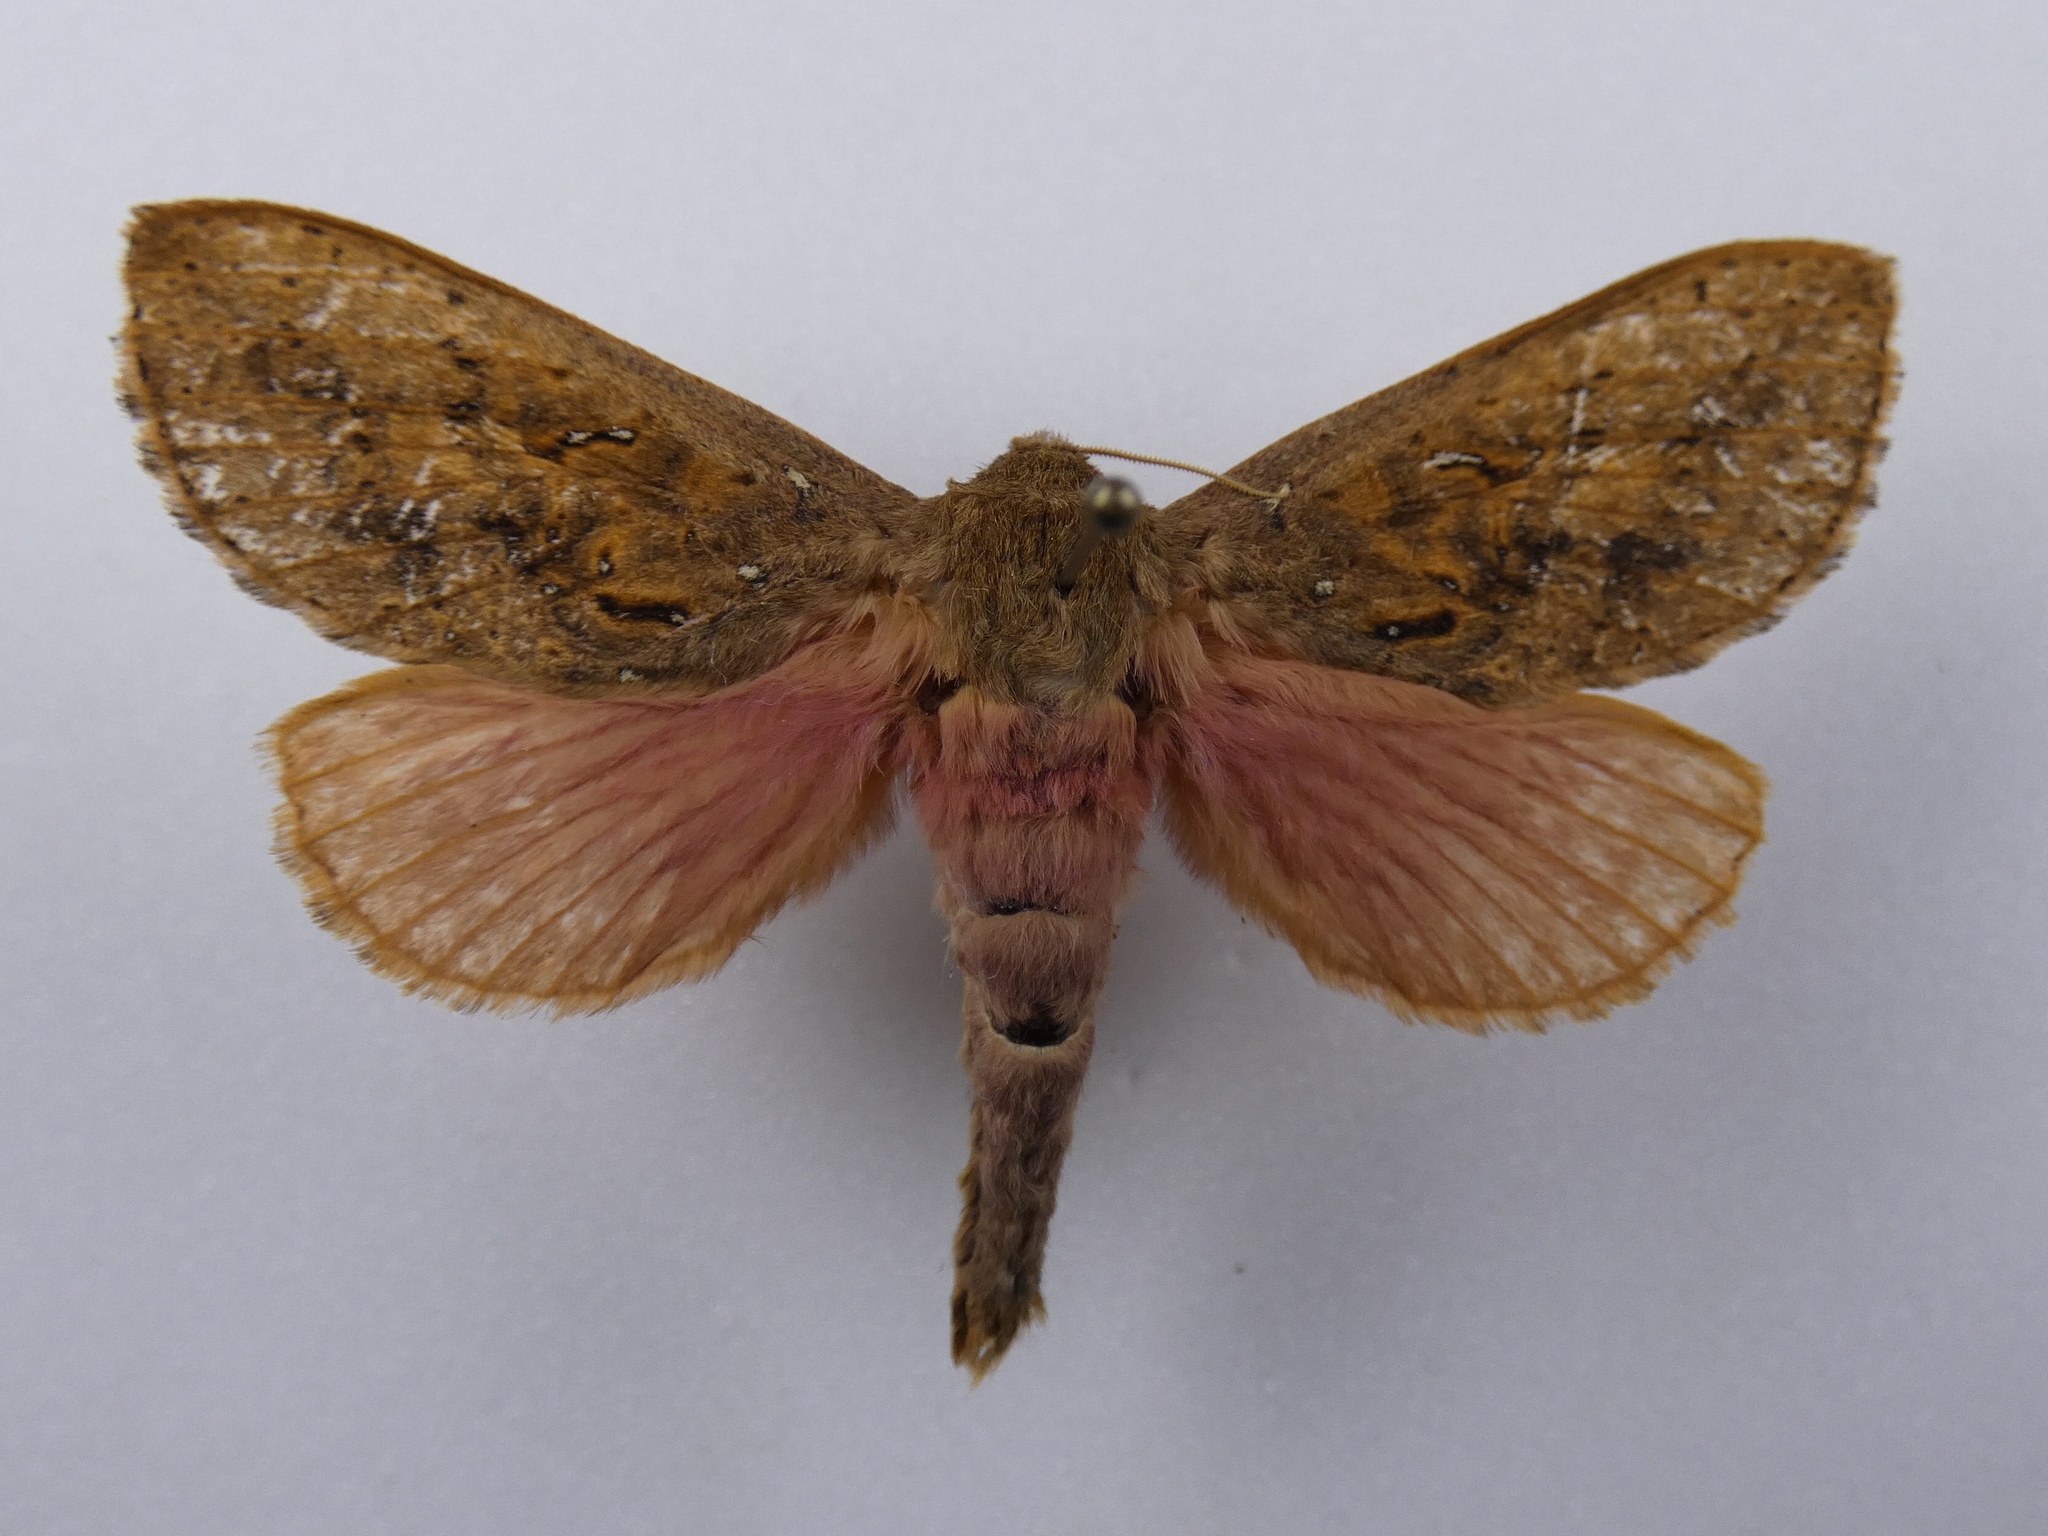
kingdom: Animalia
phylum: Arthropoda
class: Insecta
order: Lepidoptera
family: Hepialidae
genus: Dumbletonius
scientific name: Dumbletonius unimaculata
